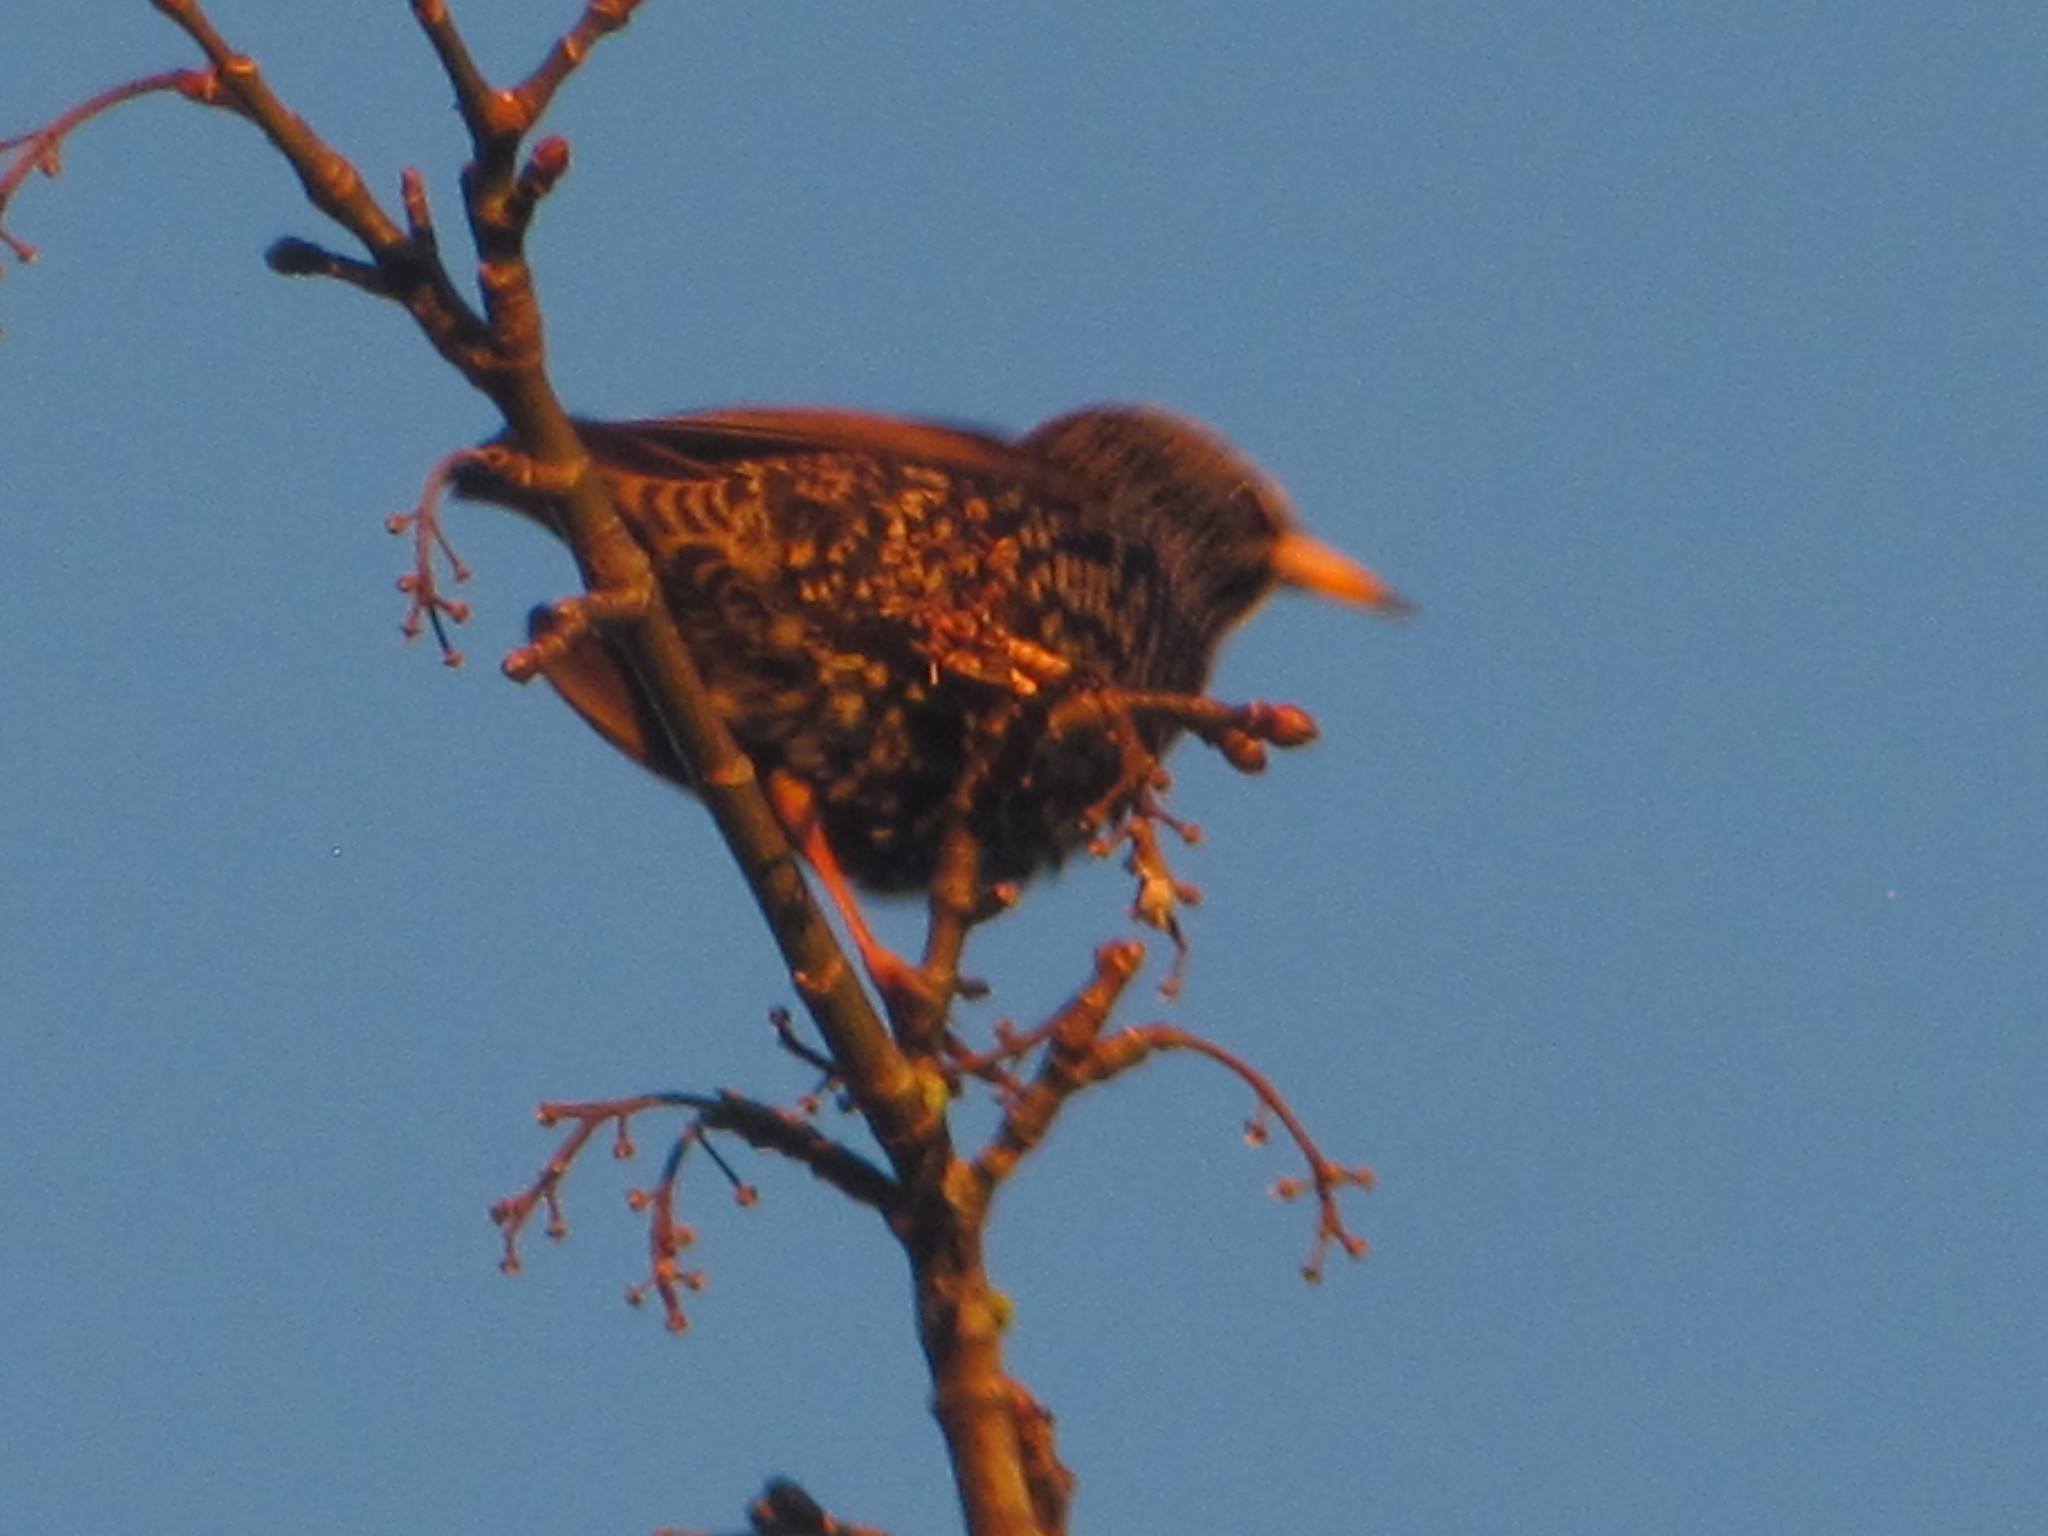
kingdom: Animalia
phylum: Chordata
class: Aves
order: Passeriformes
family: Sturnidae
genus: Sturnus
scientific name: Sturnus vulgaris
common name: Common starling
